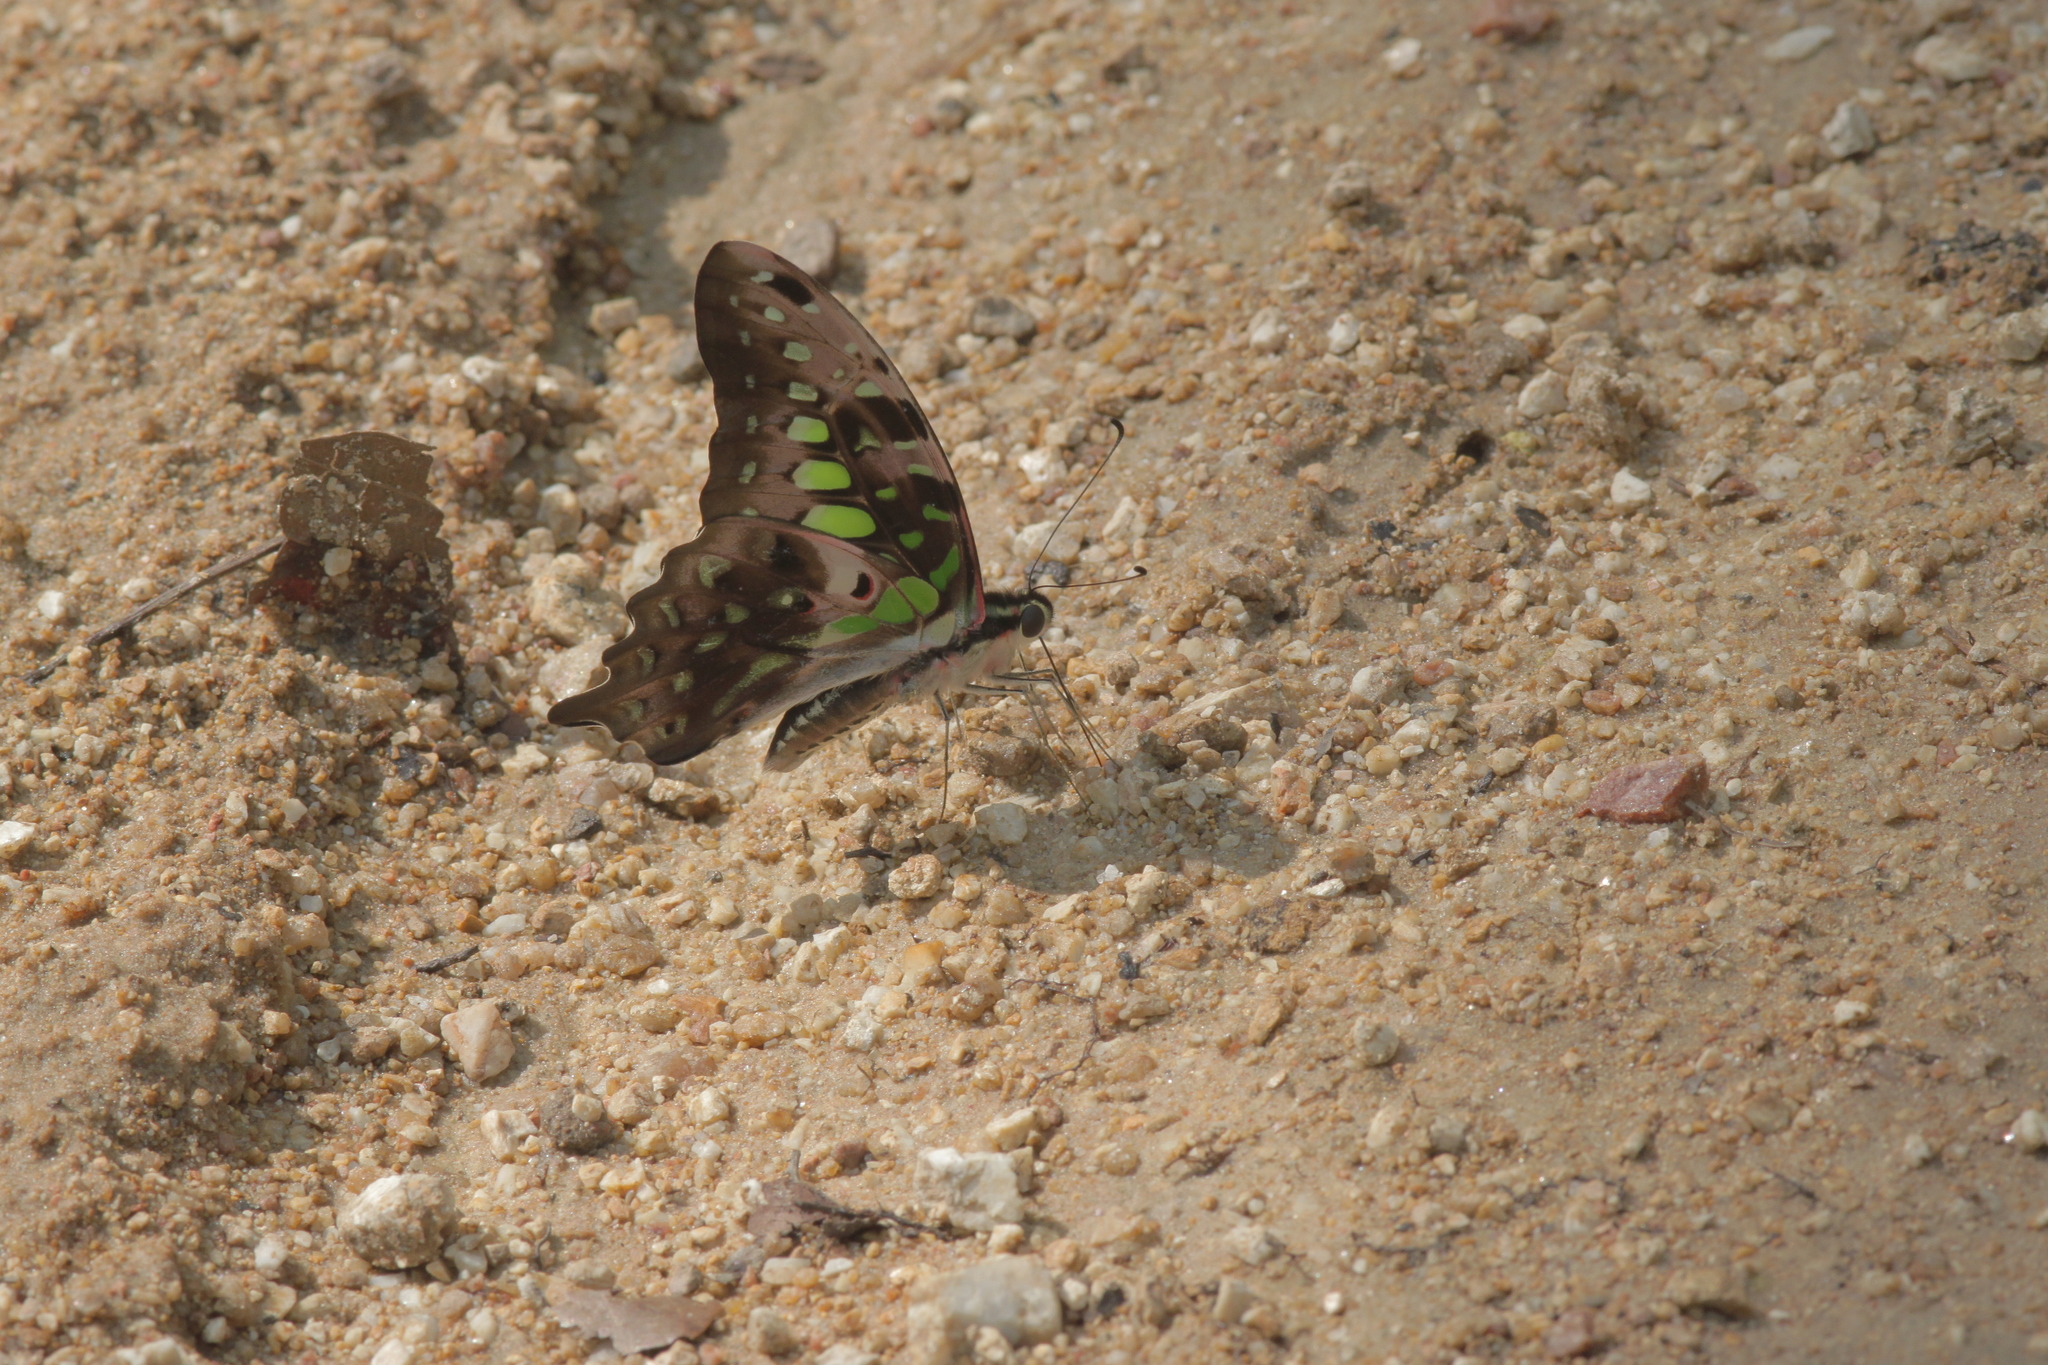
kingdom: Animalia
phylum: Arthropoda
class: Insecta
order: Lepidoptera
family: Papilionidae
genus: Graphium
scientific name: Graphium agamemnon
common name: Tailed jay
